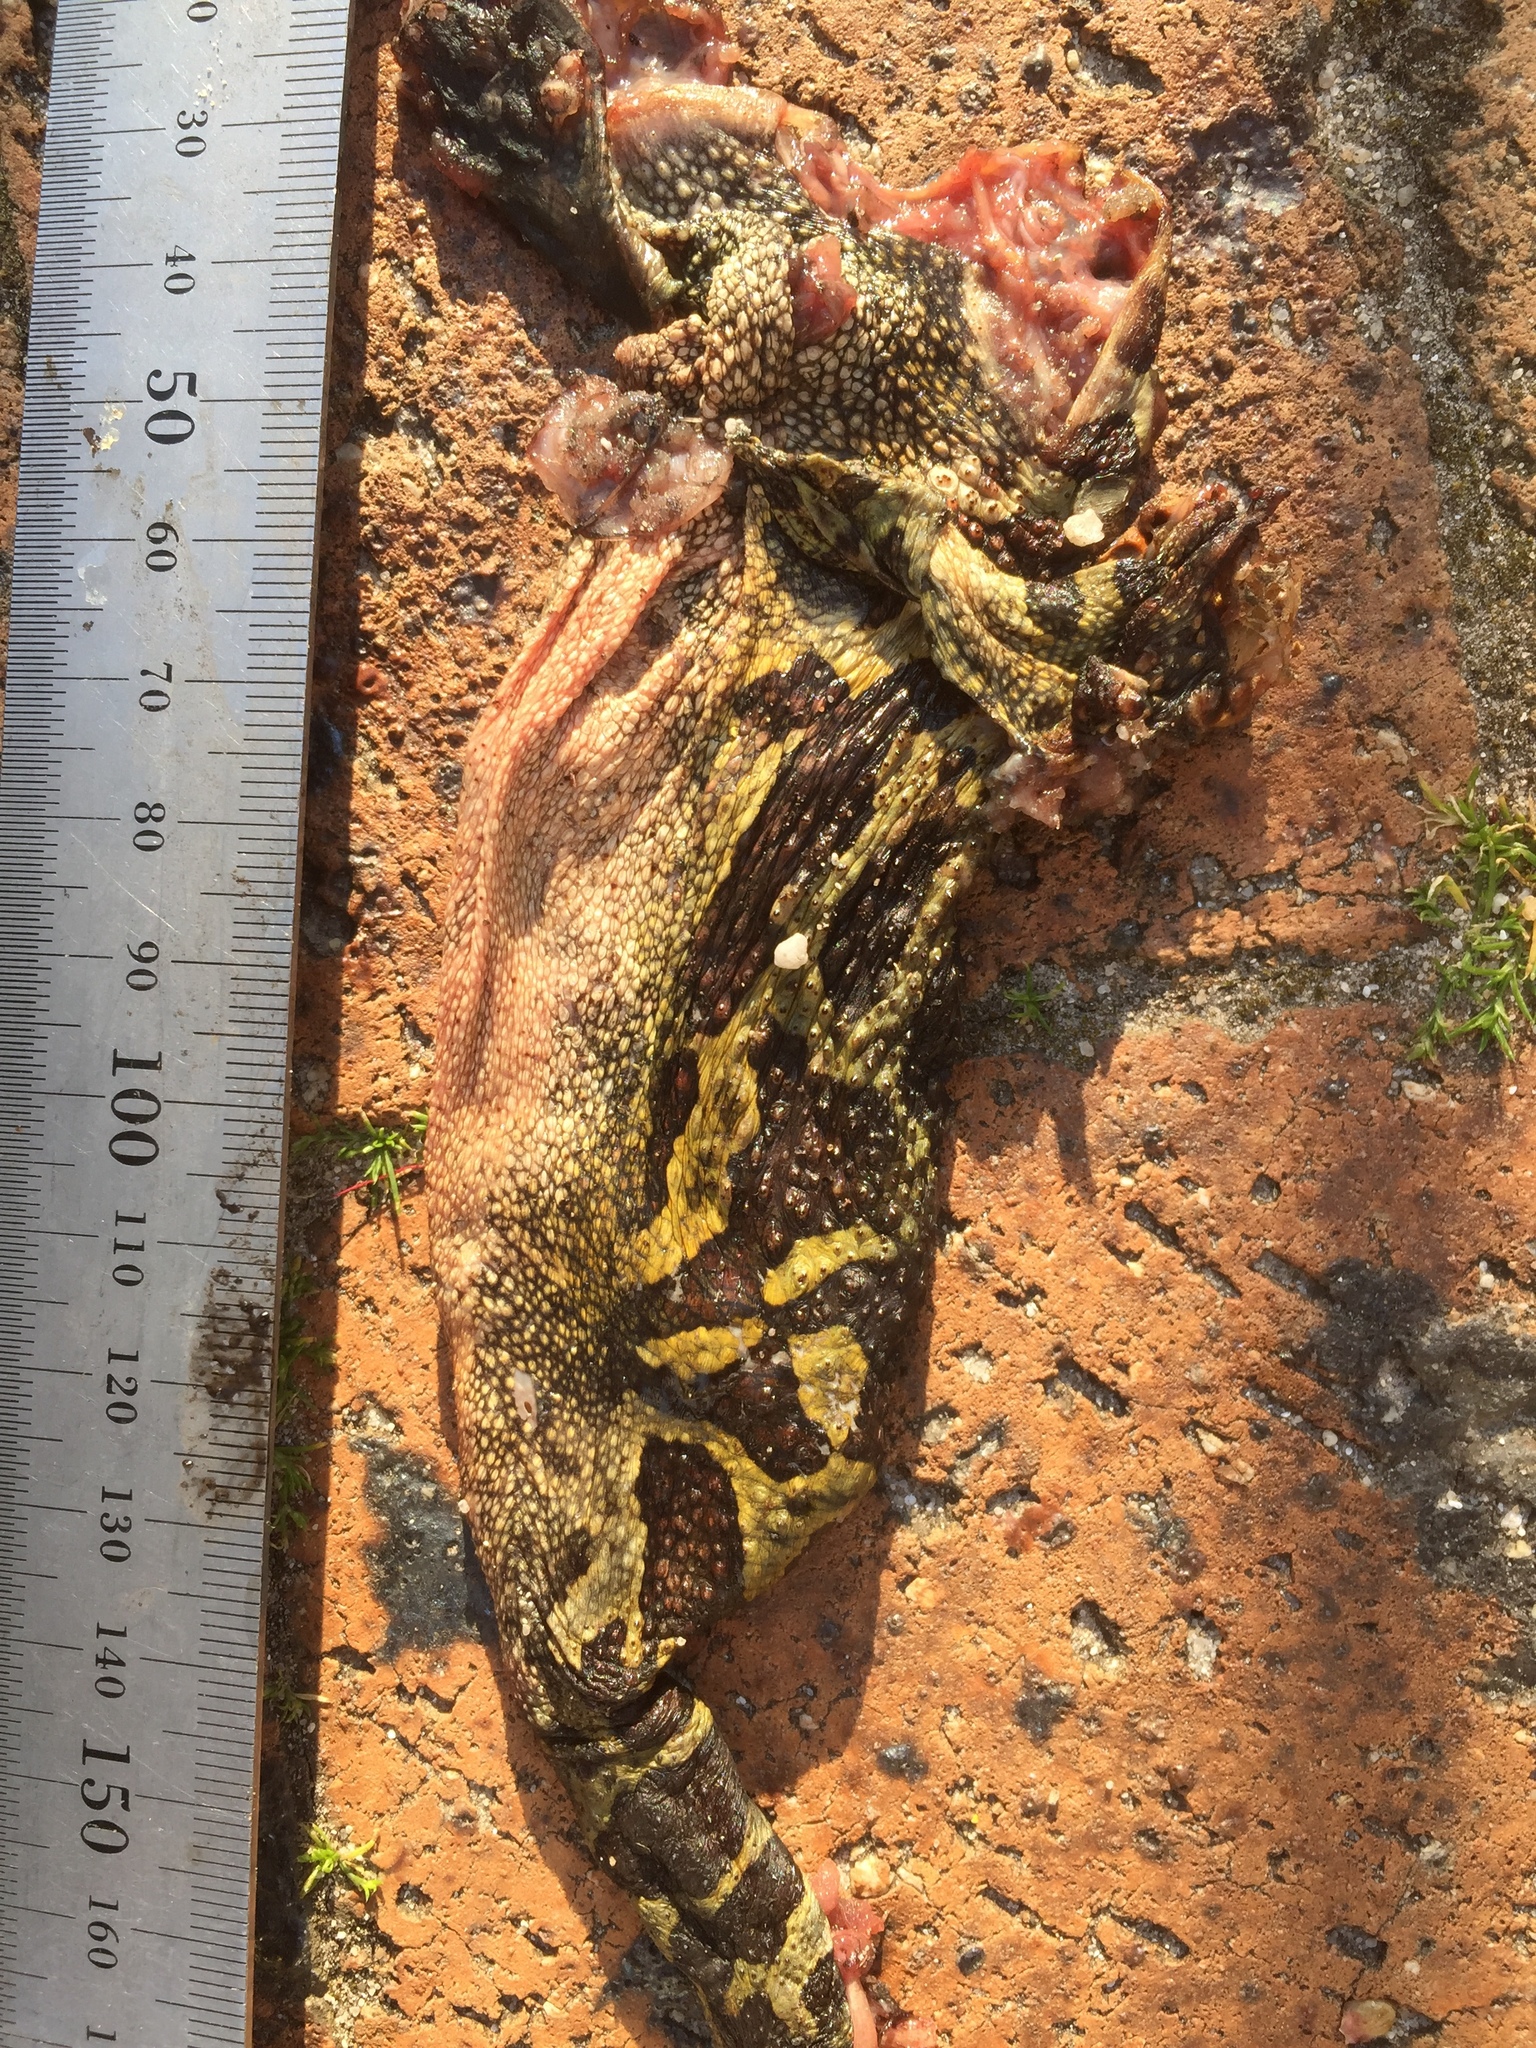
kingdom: Animalia
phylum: Chordata
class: Amphibia
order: Anura
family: Bufonidae
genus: Sclerophrys
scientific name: Sclerophrys pantherina
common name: Panther toad
